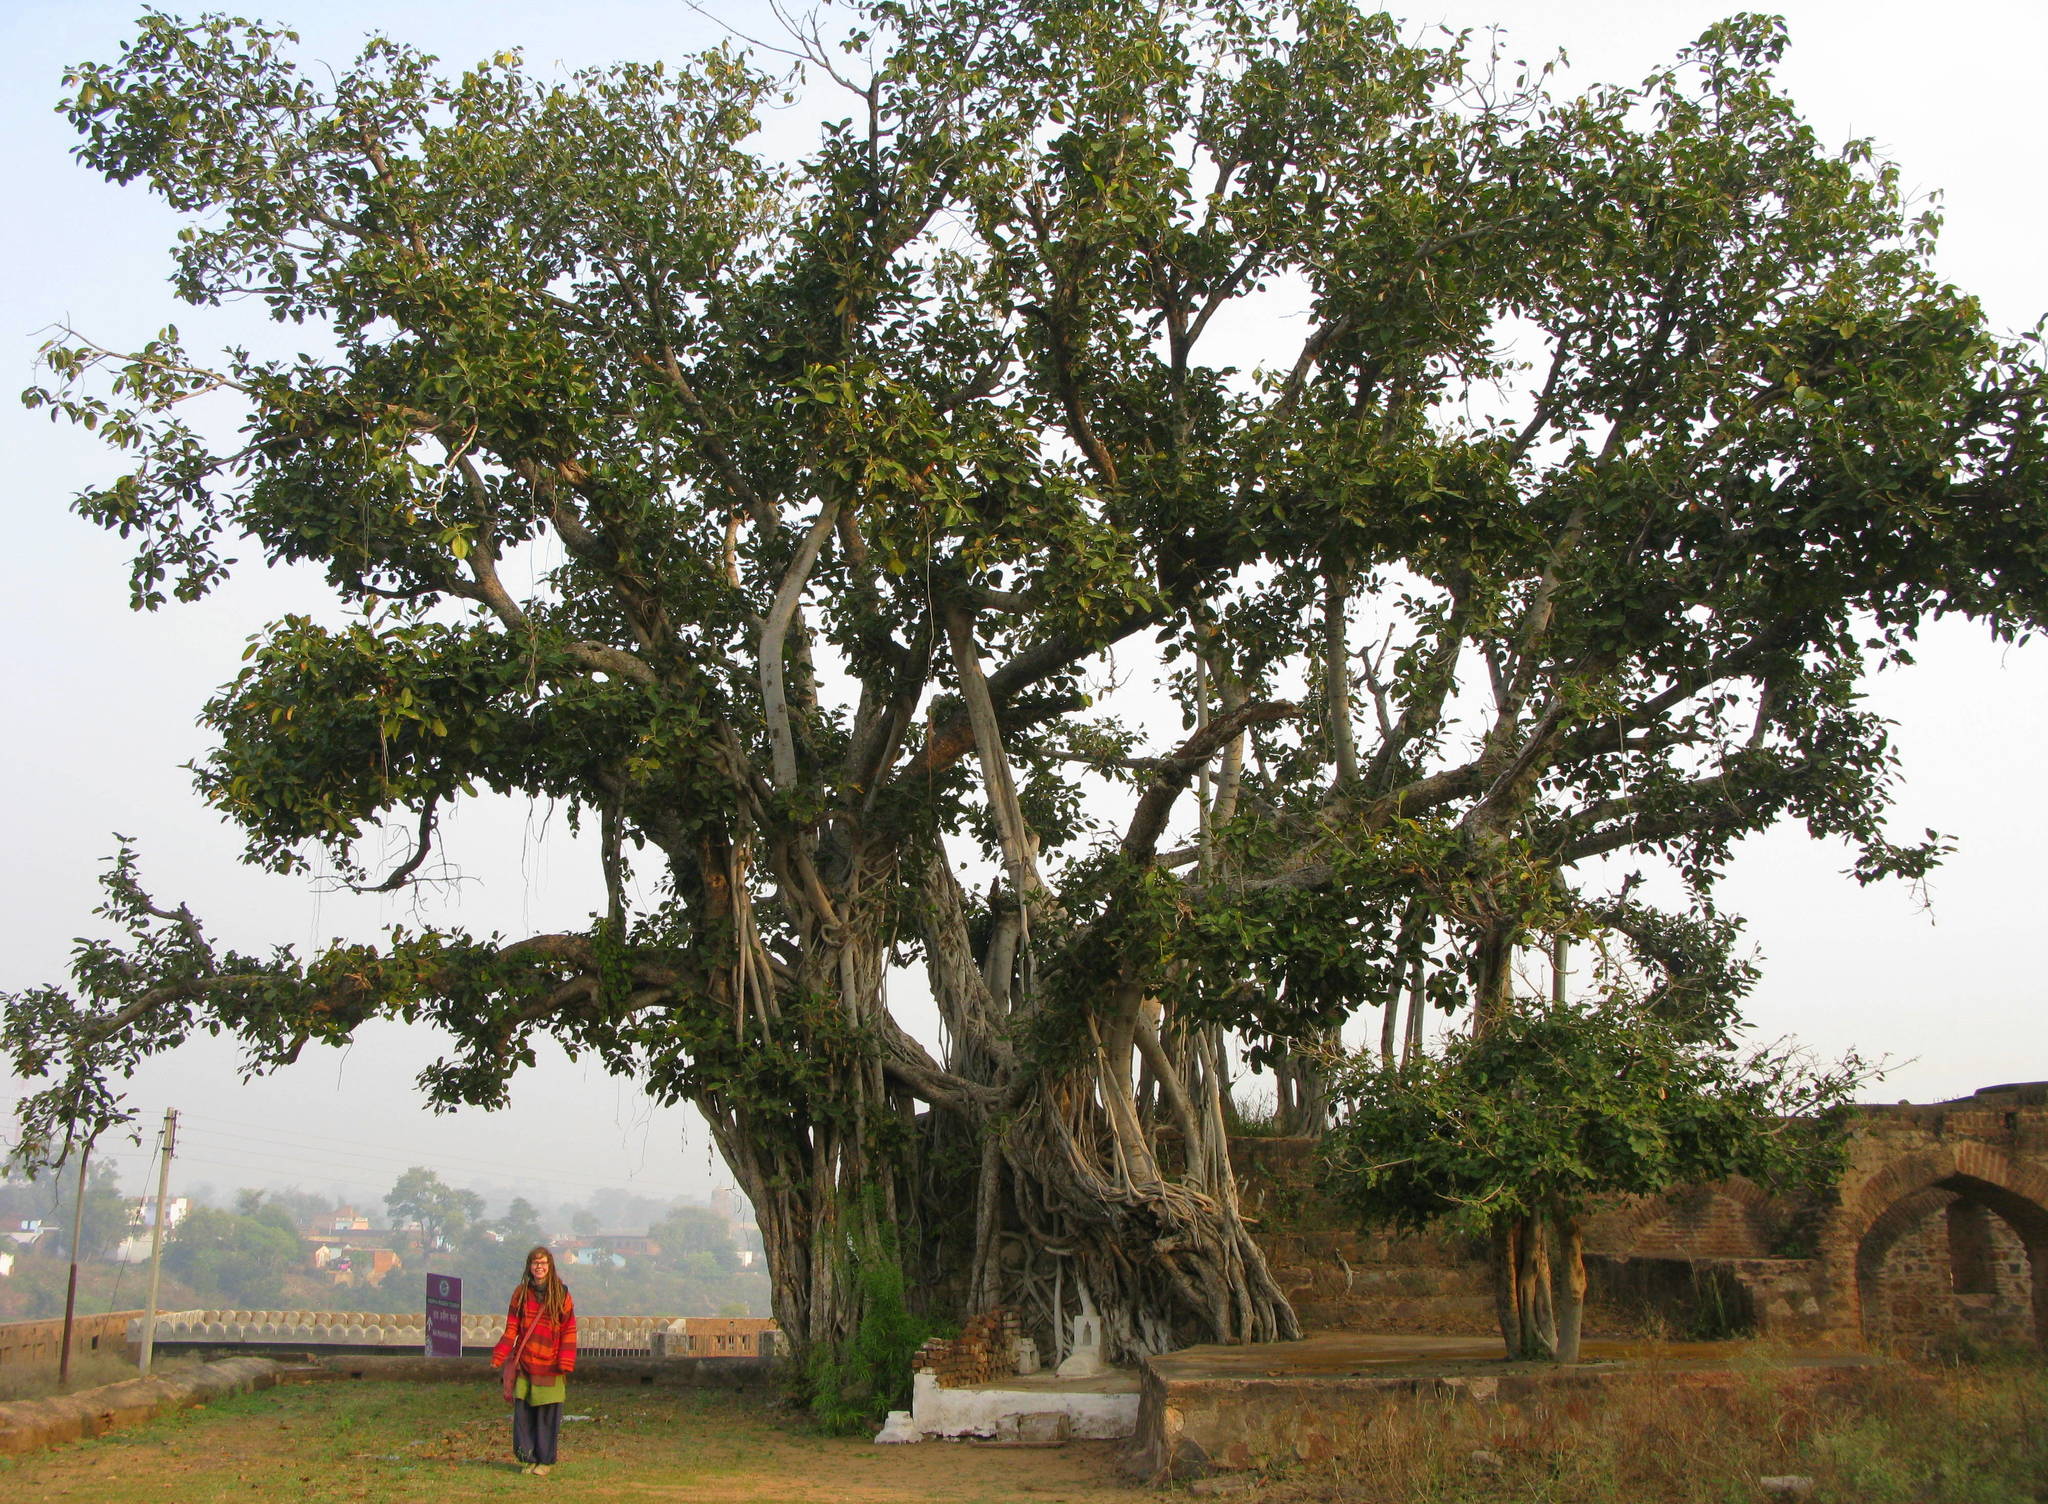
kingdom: Plantae
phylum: Tracheophyta
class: Magnoliopsida
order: Rosales
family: Moraceae
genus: Ficus
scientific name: Ficus benghalensis
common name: Indian banyan
